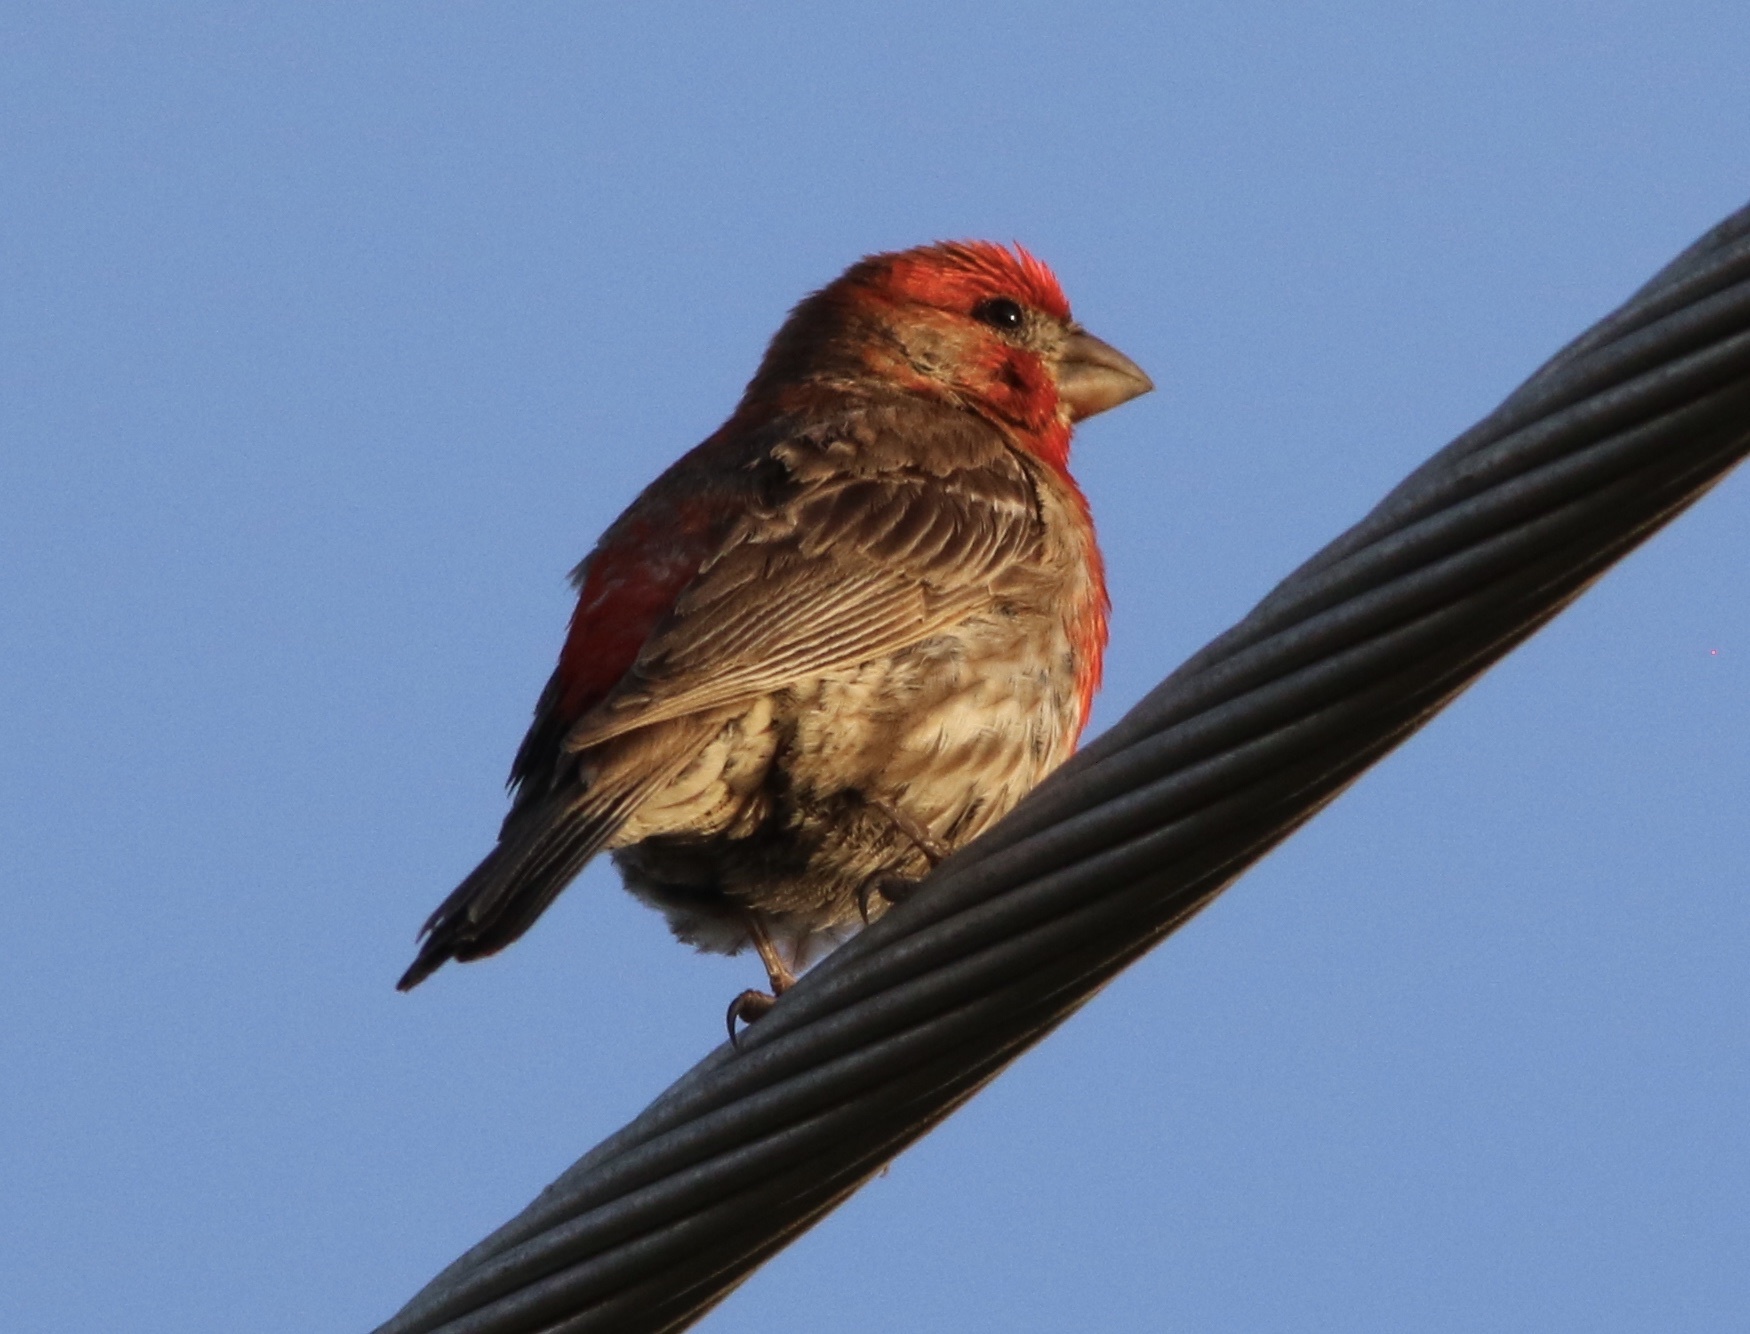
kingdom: Animalia
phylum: Chordata
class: Aves
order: Passeriformes
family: Fringillidae
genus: Haemorhous
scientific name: Haemorhous mexicanus
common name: House finch
